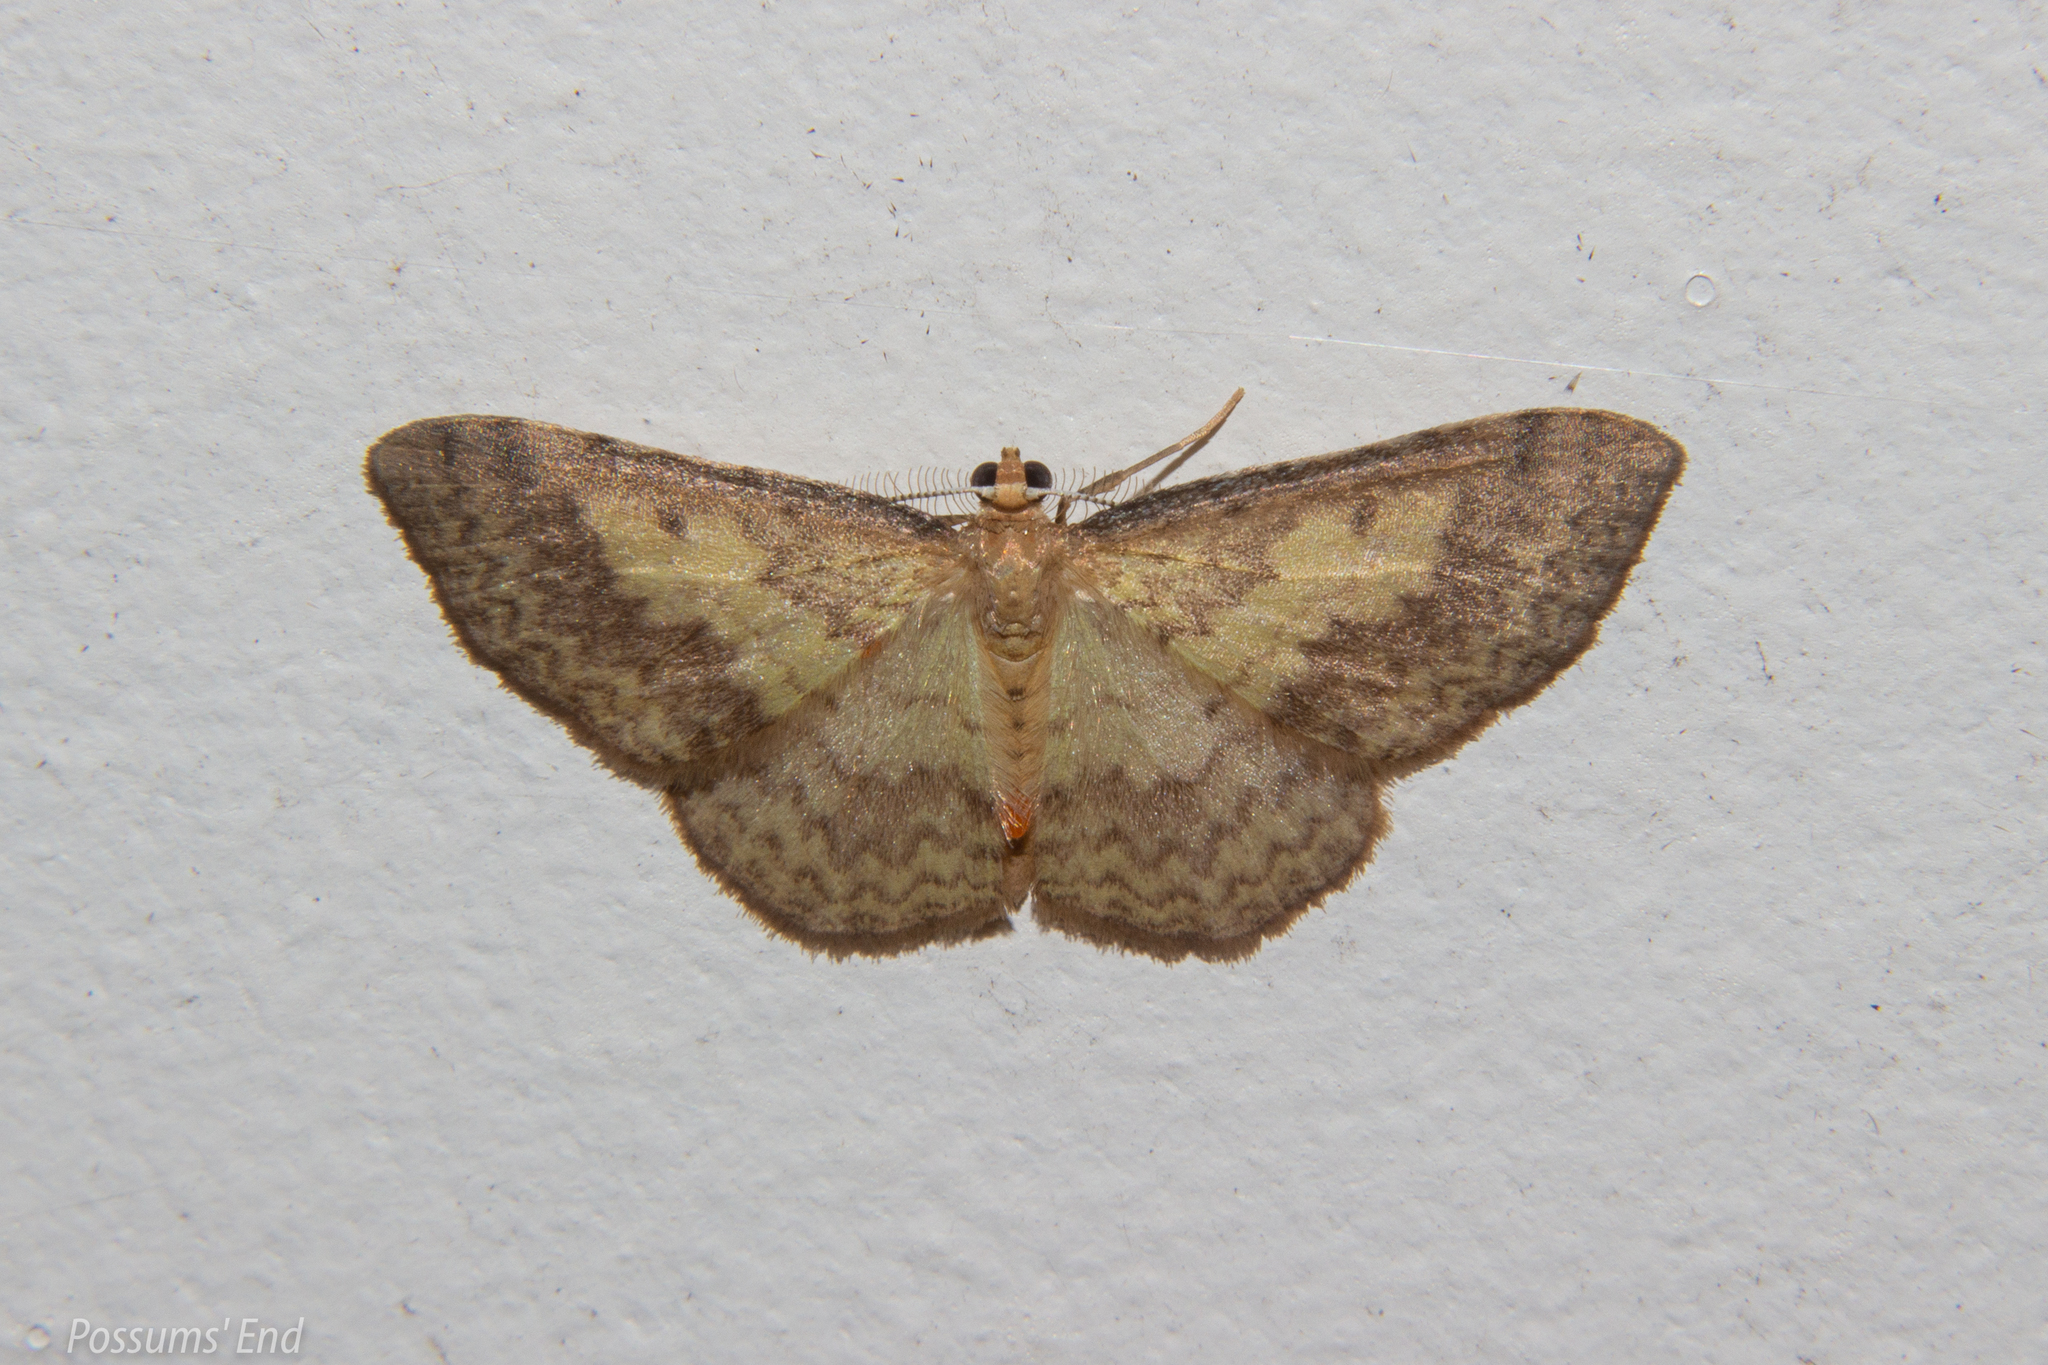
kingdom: Animalia
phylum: Arthropoda
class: Insecta
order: Lepidoptera
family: Geometridae
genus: Epiphryne
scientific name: Epiphryne undosata
